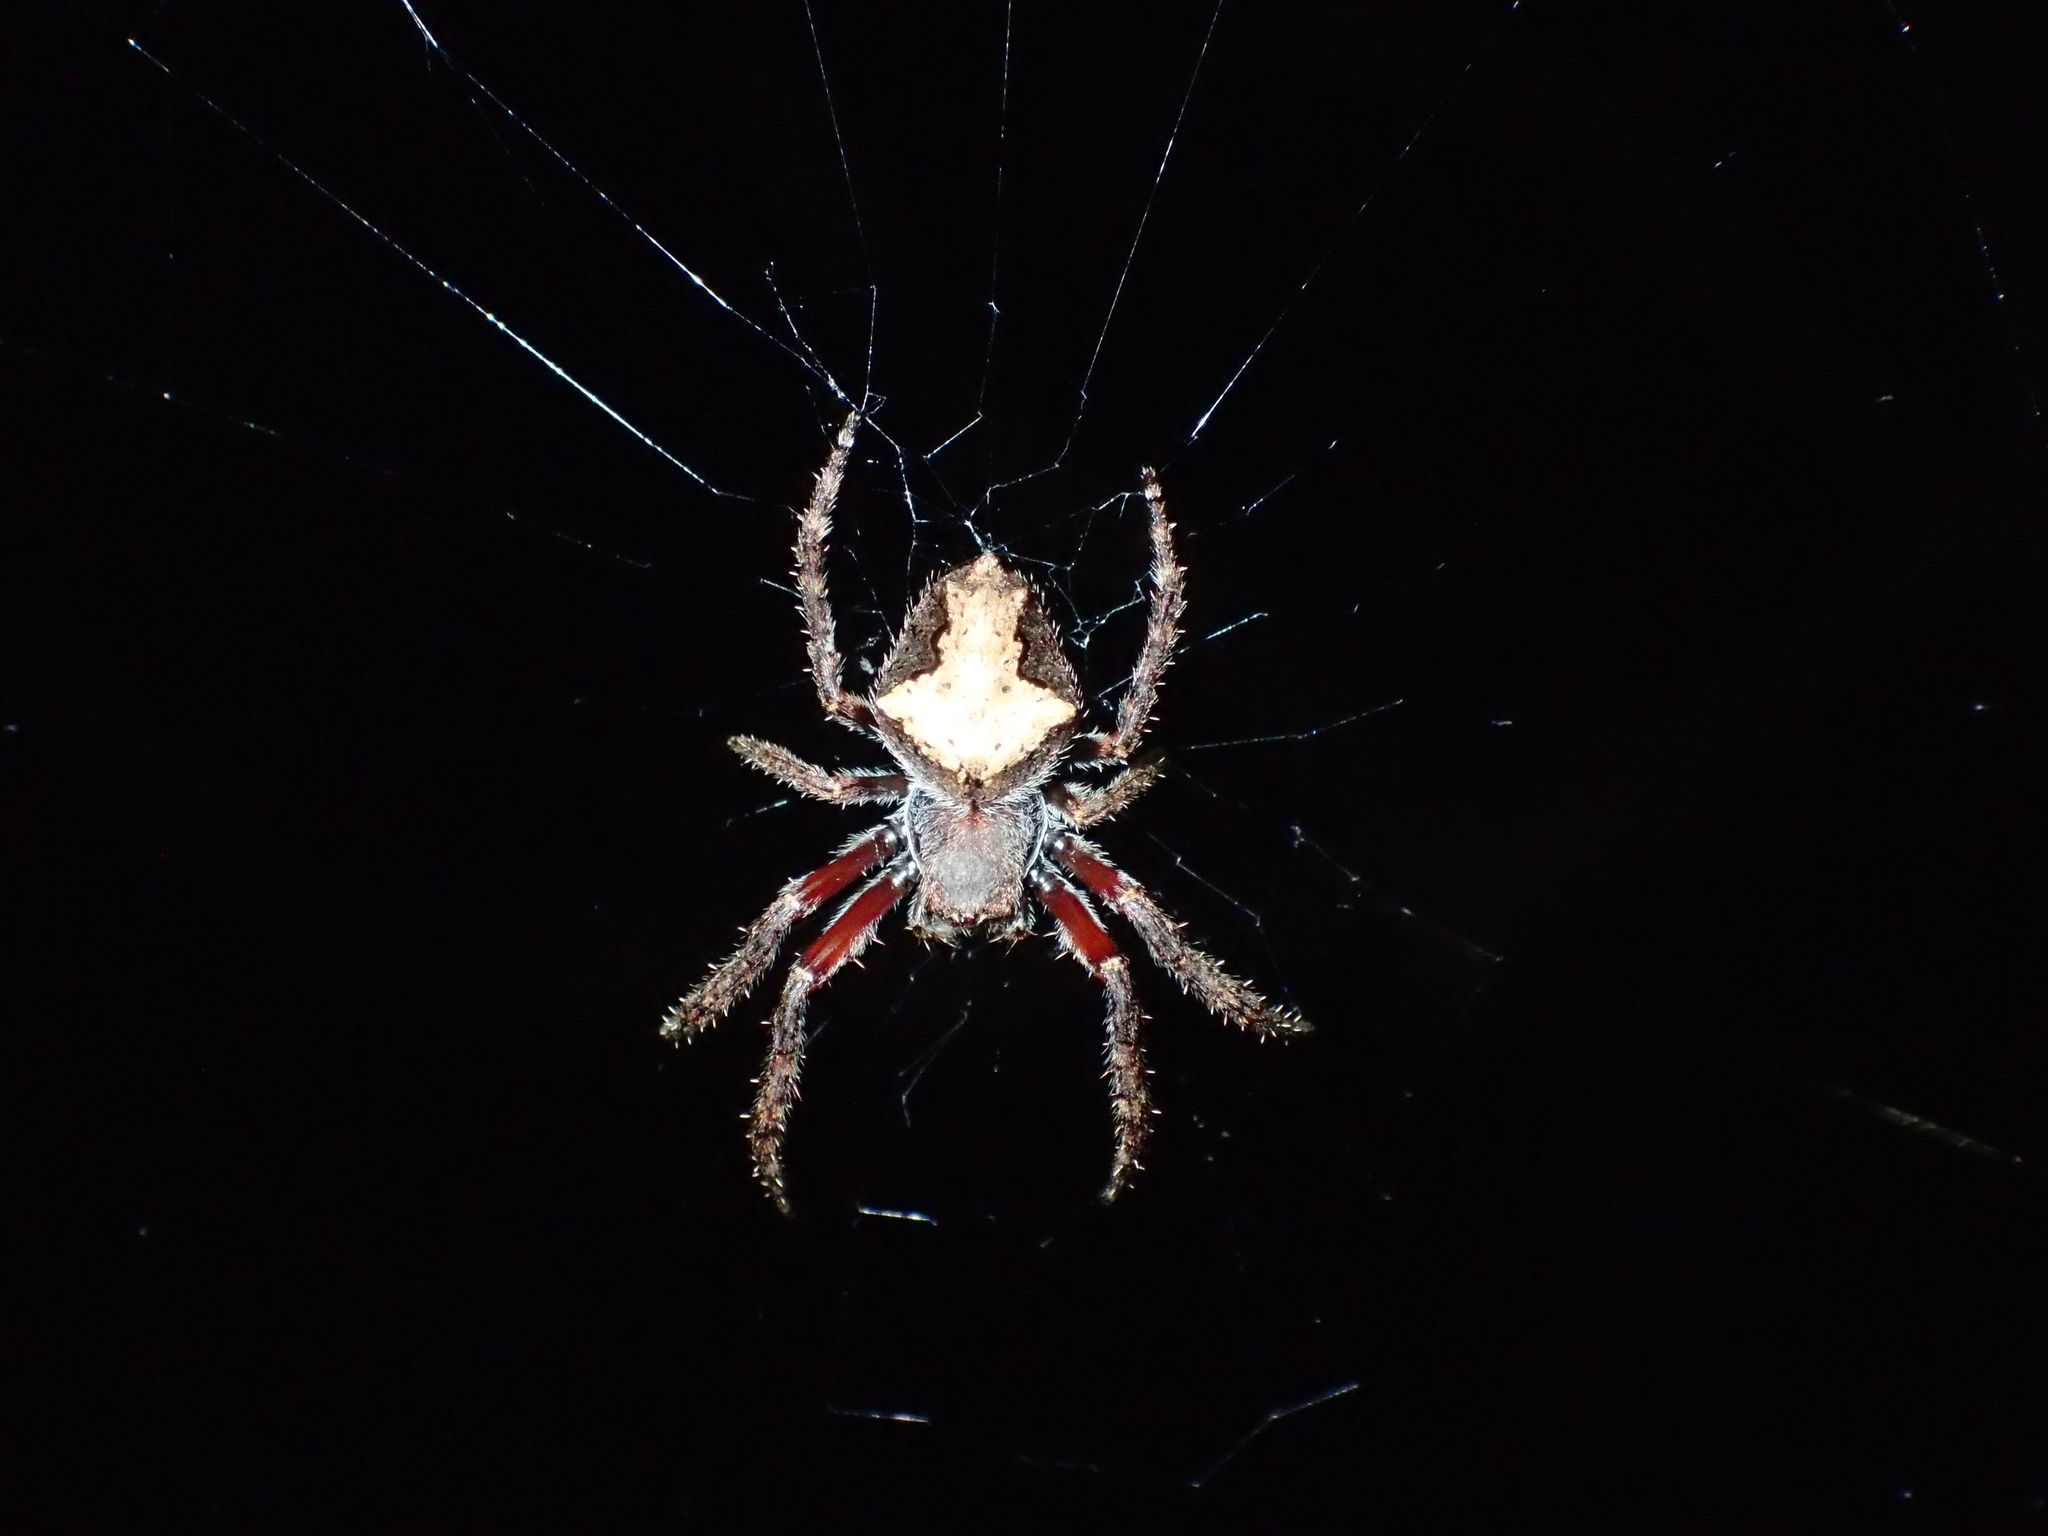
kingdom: Animalia
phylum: Arthropoda
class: Arachnida
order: Araneae
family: Araneidae
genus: Eriophora
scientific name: Eriophora pustulosa
